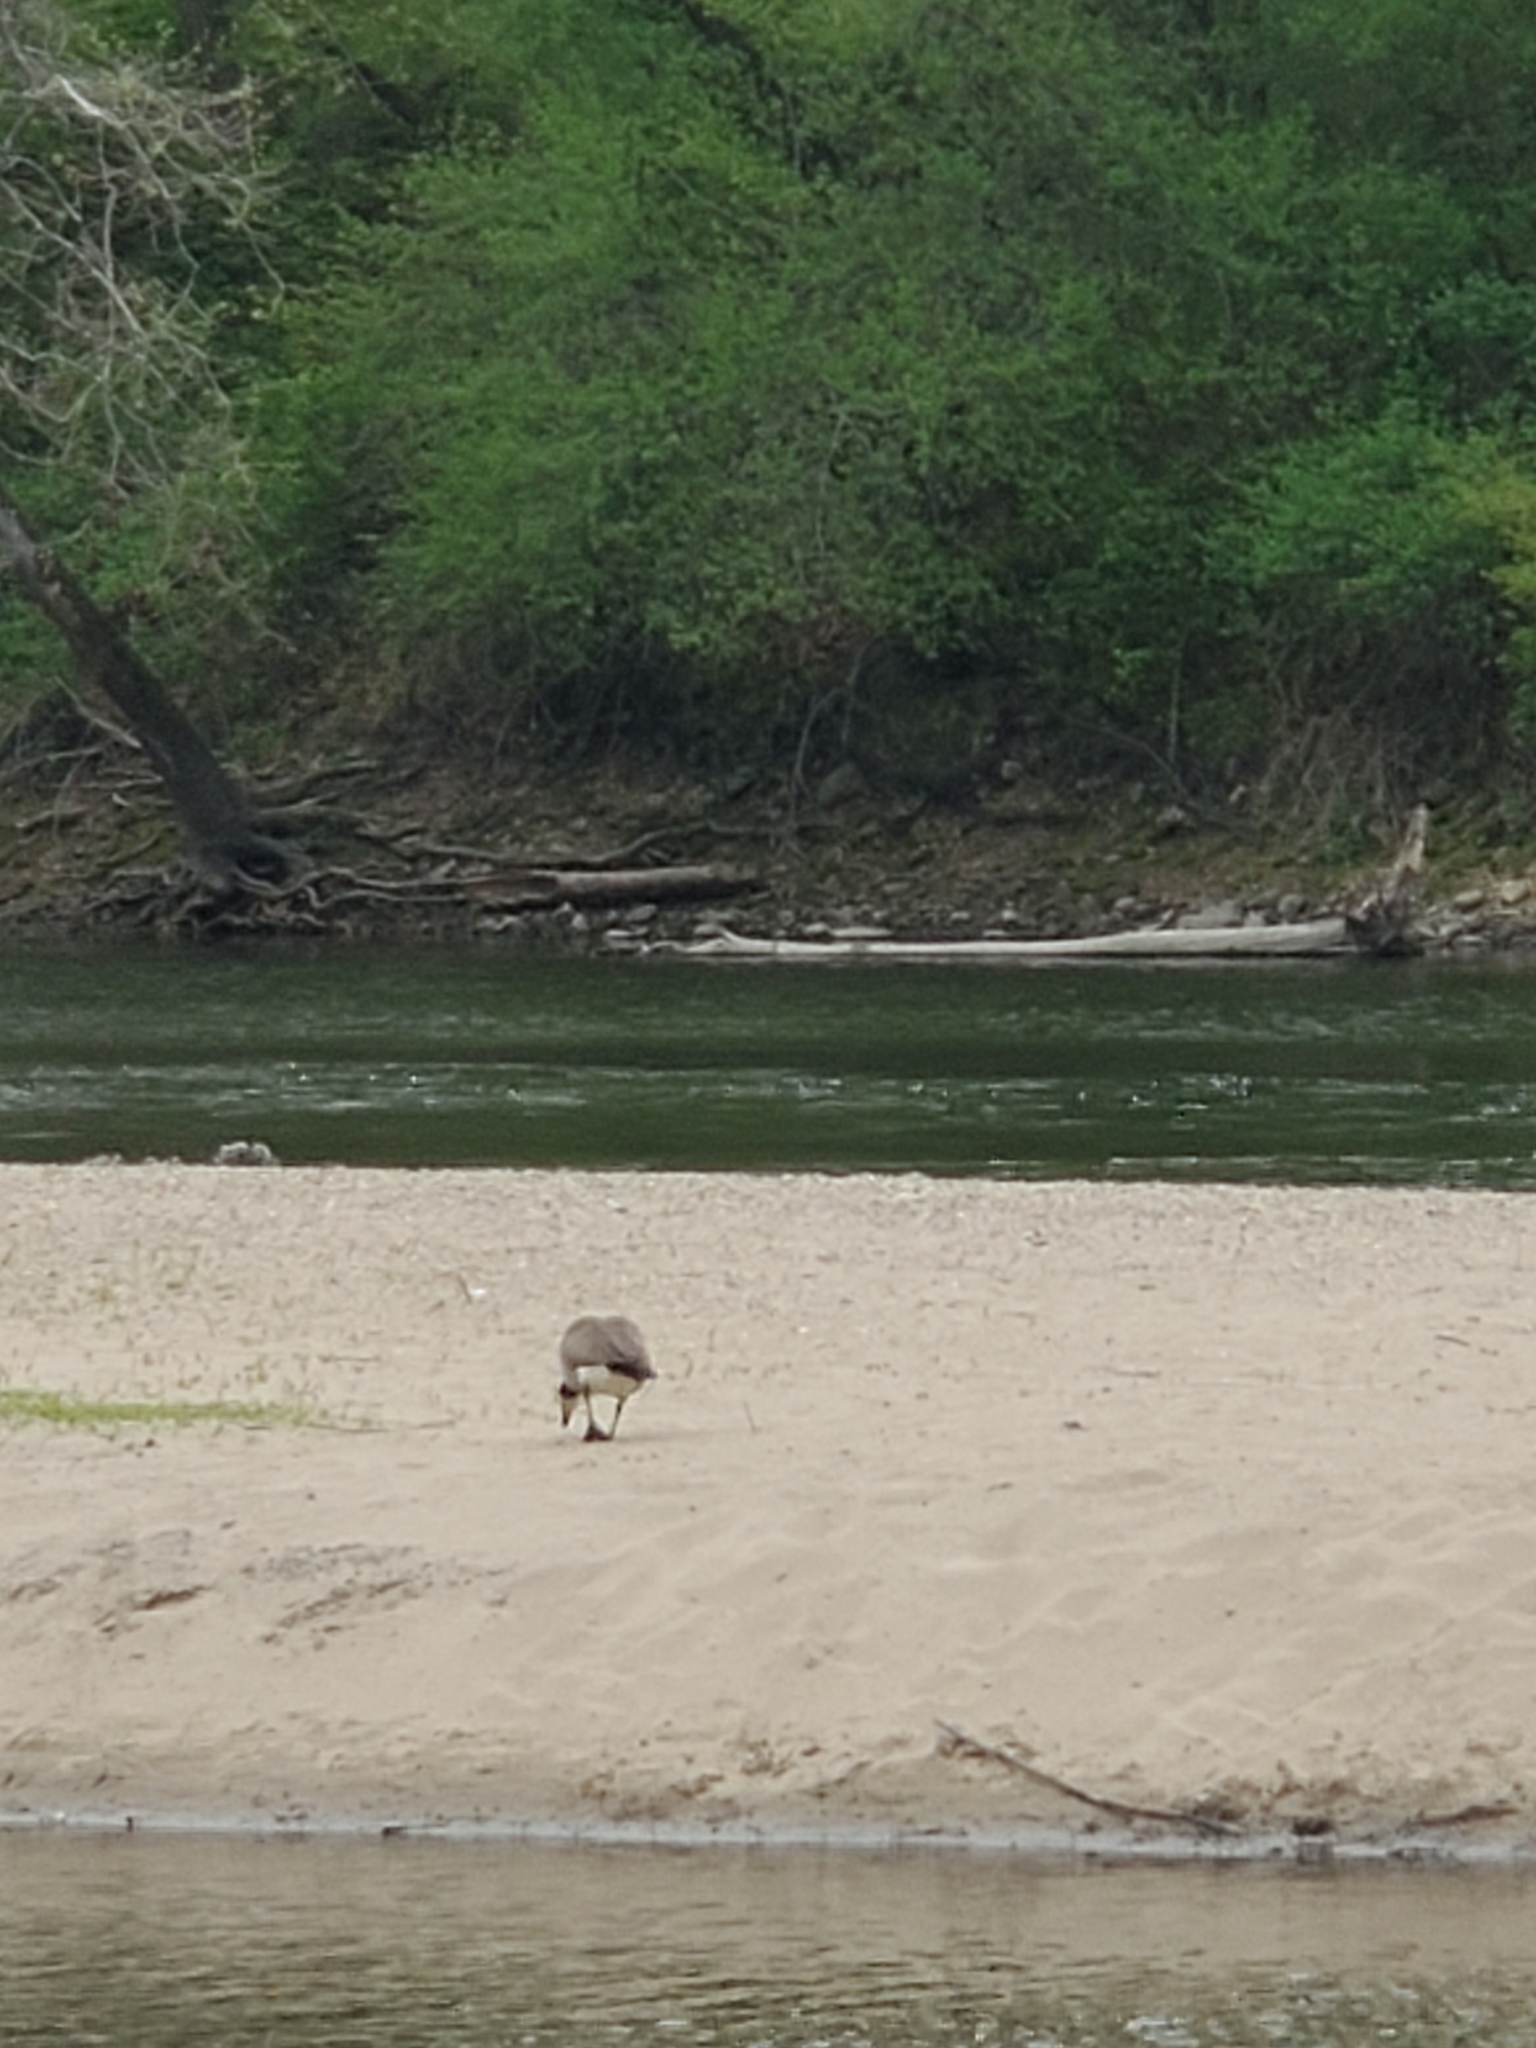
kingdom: Animalia
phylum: Chordata
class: Aves
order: Anseriformes
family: Anatidae
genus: Branta
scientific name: Branta canadensis
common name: Canada goose
